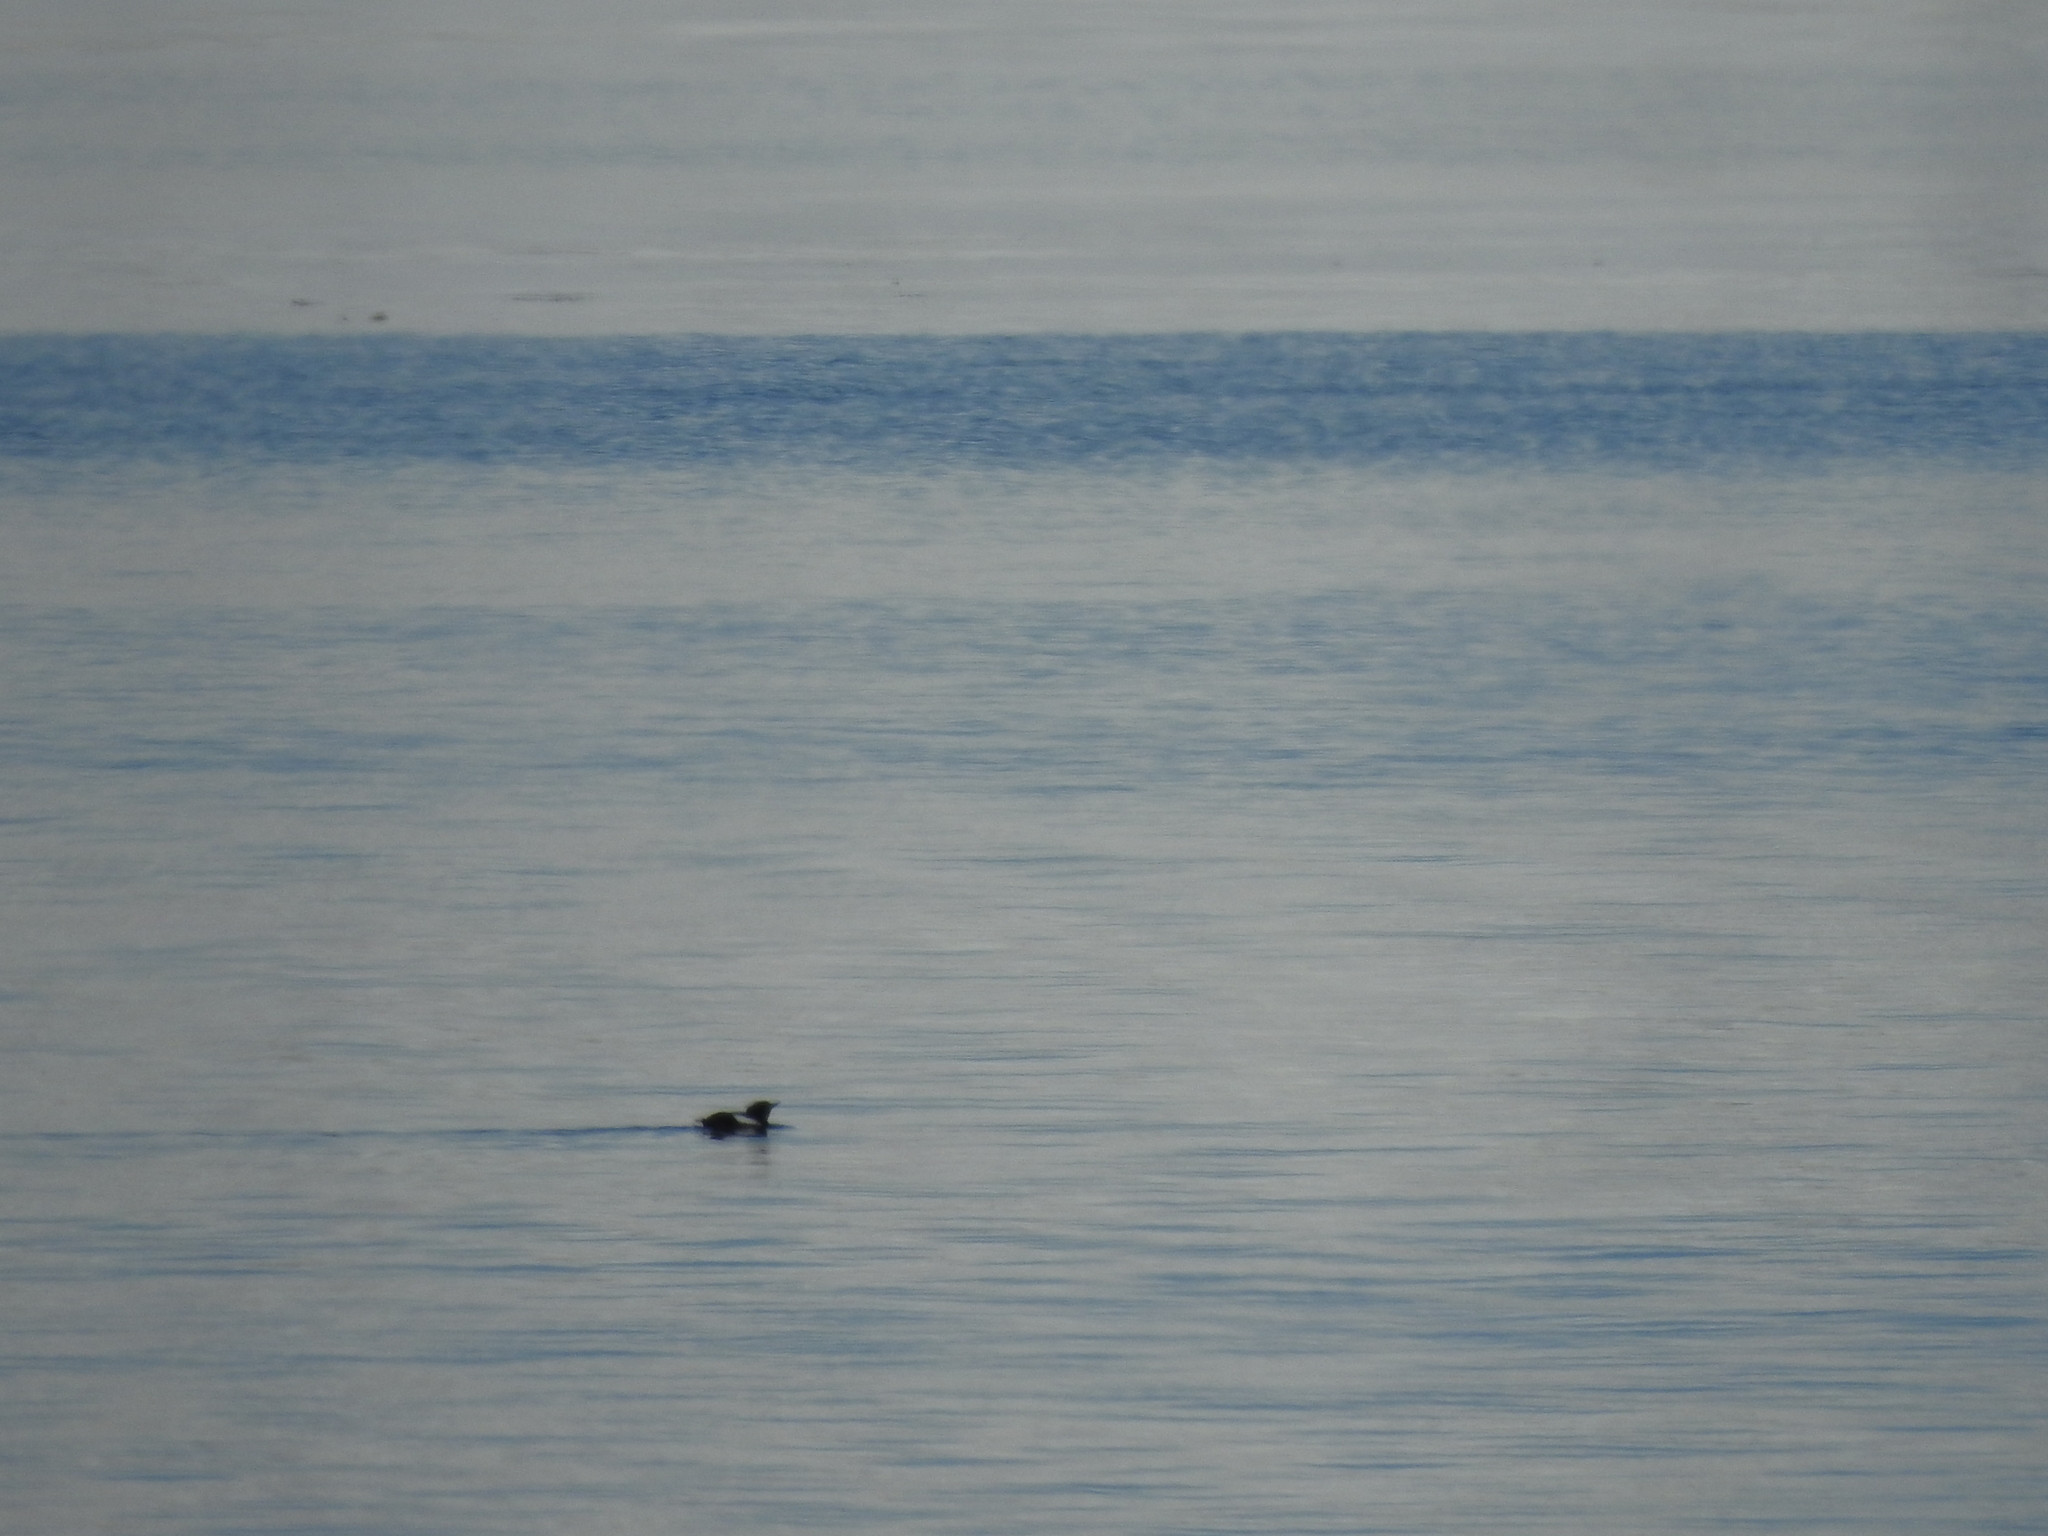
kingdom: Animalia
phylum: Chordata
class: Aves
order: Charadriiformes
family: Alcidae
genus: Cepphus
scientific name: Cepphus grylle
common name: Black guillemot
